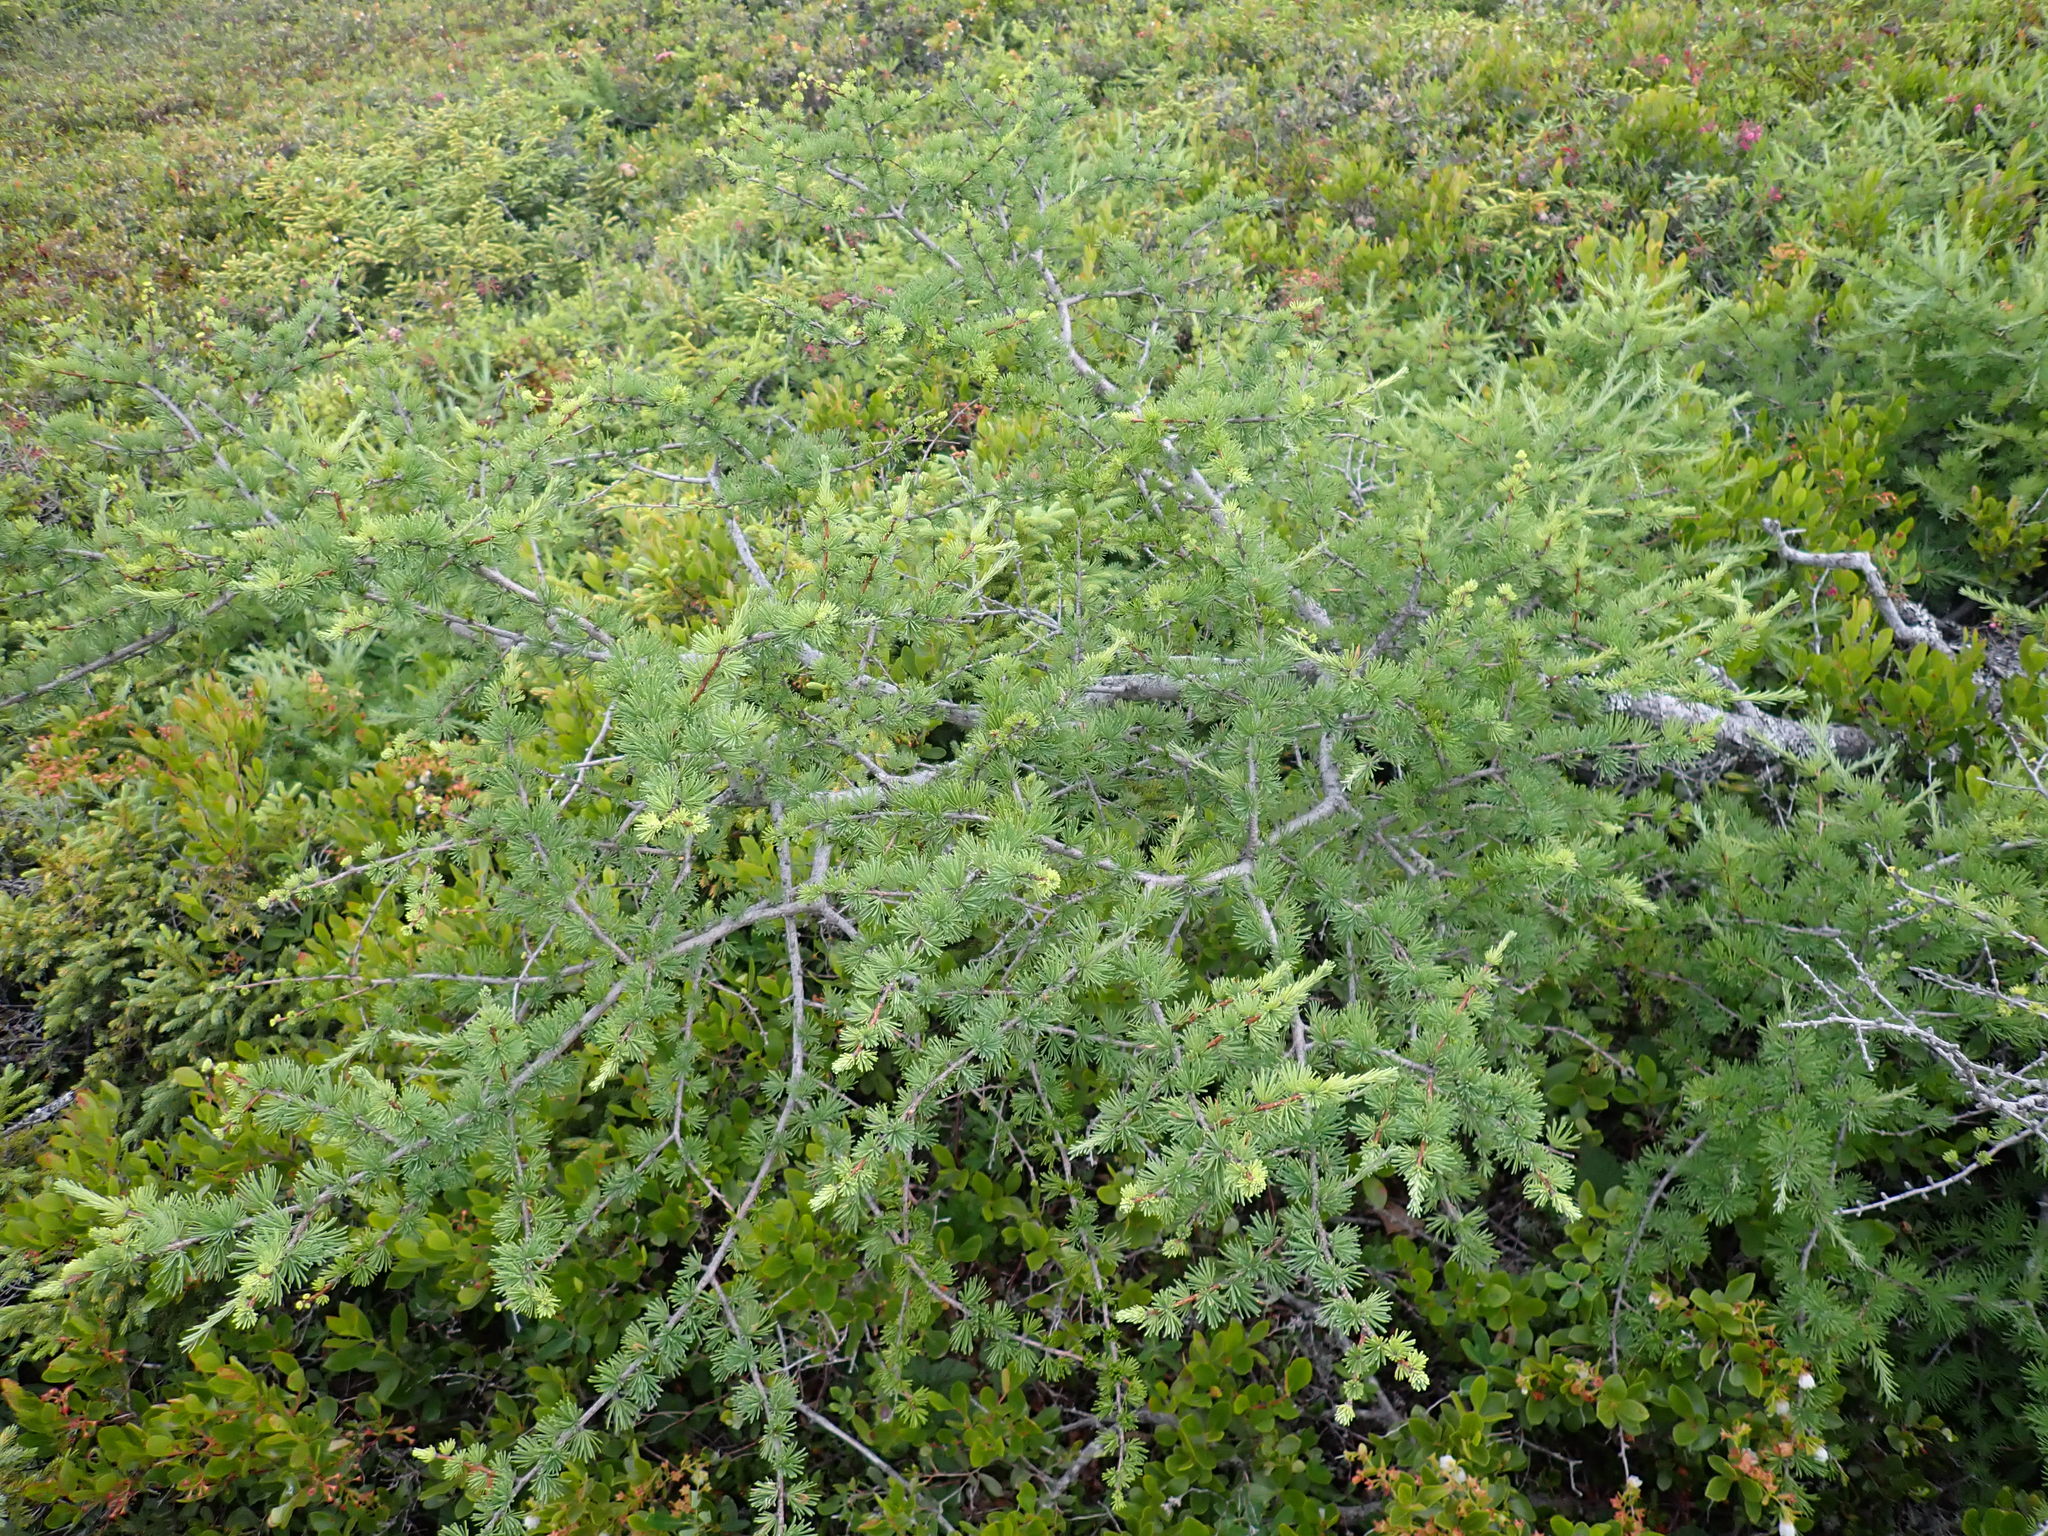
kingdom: Plantae
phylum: Tracheophyta
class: Pinopsida
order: Pinales
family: Pinaceae
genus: Larix
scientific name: Larix laricina
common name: American larch
